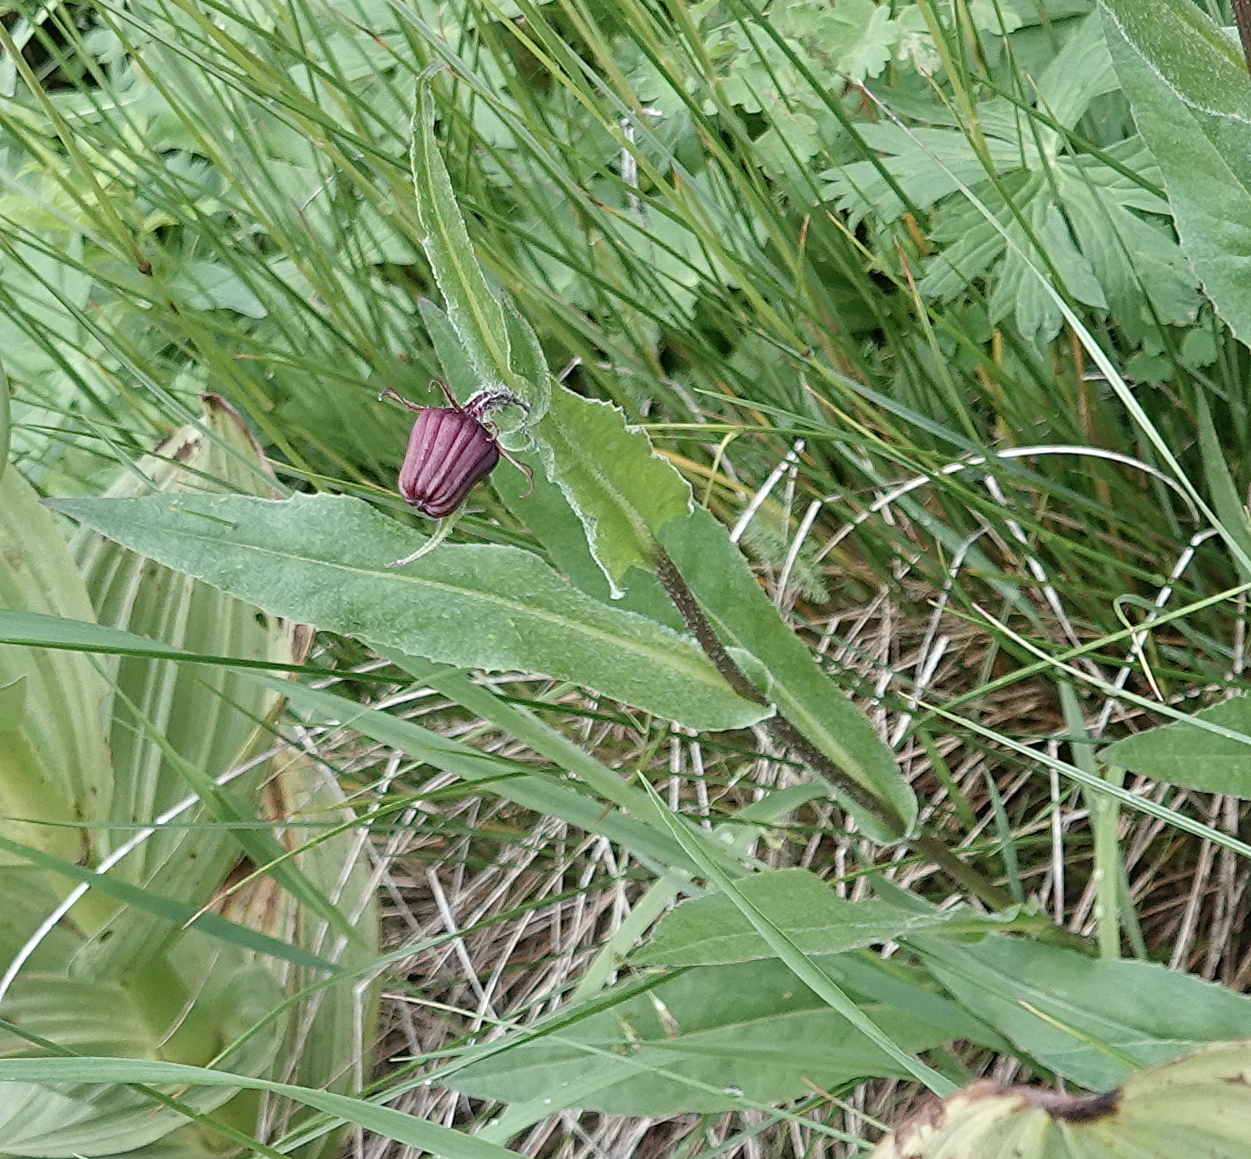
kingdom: Plantae
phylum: Tracheophyta
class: Magnoliopsida
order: Asterales
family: Asteraceae
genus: Senecio
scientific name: Senecio bigelovii
